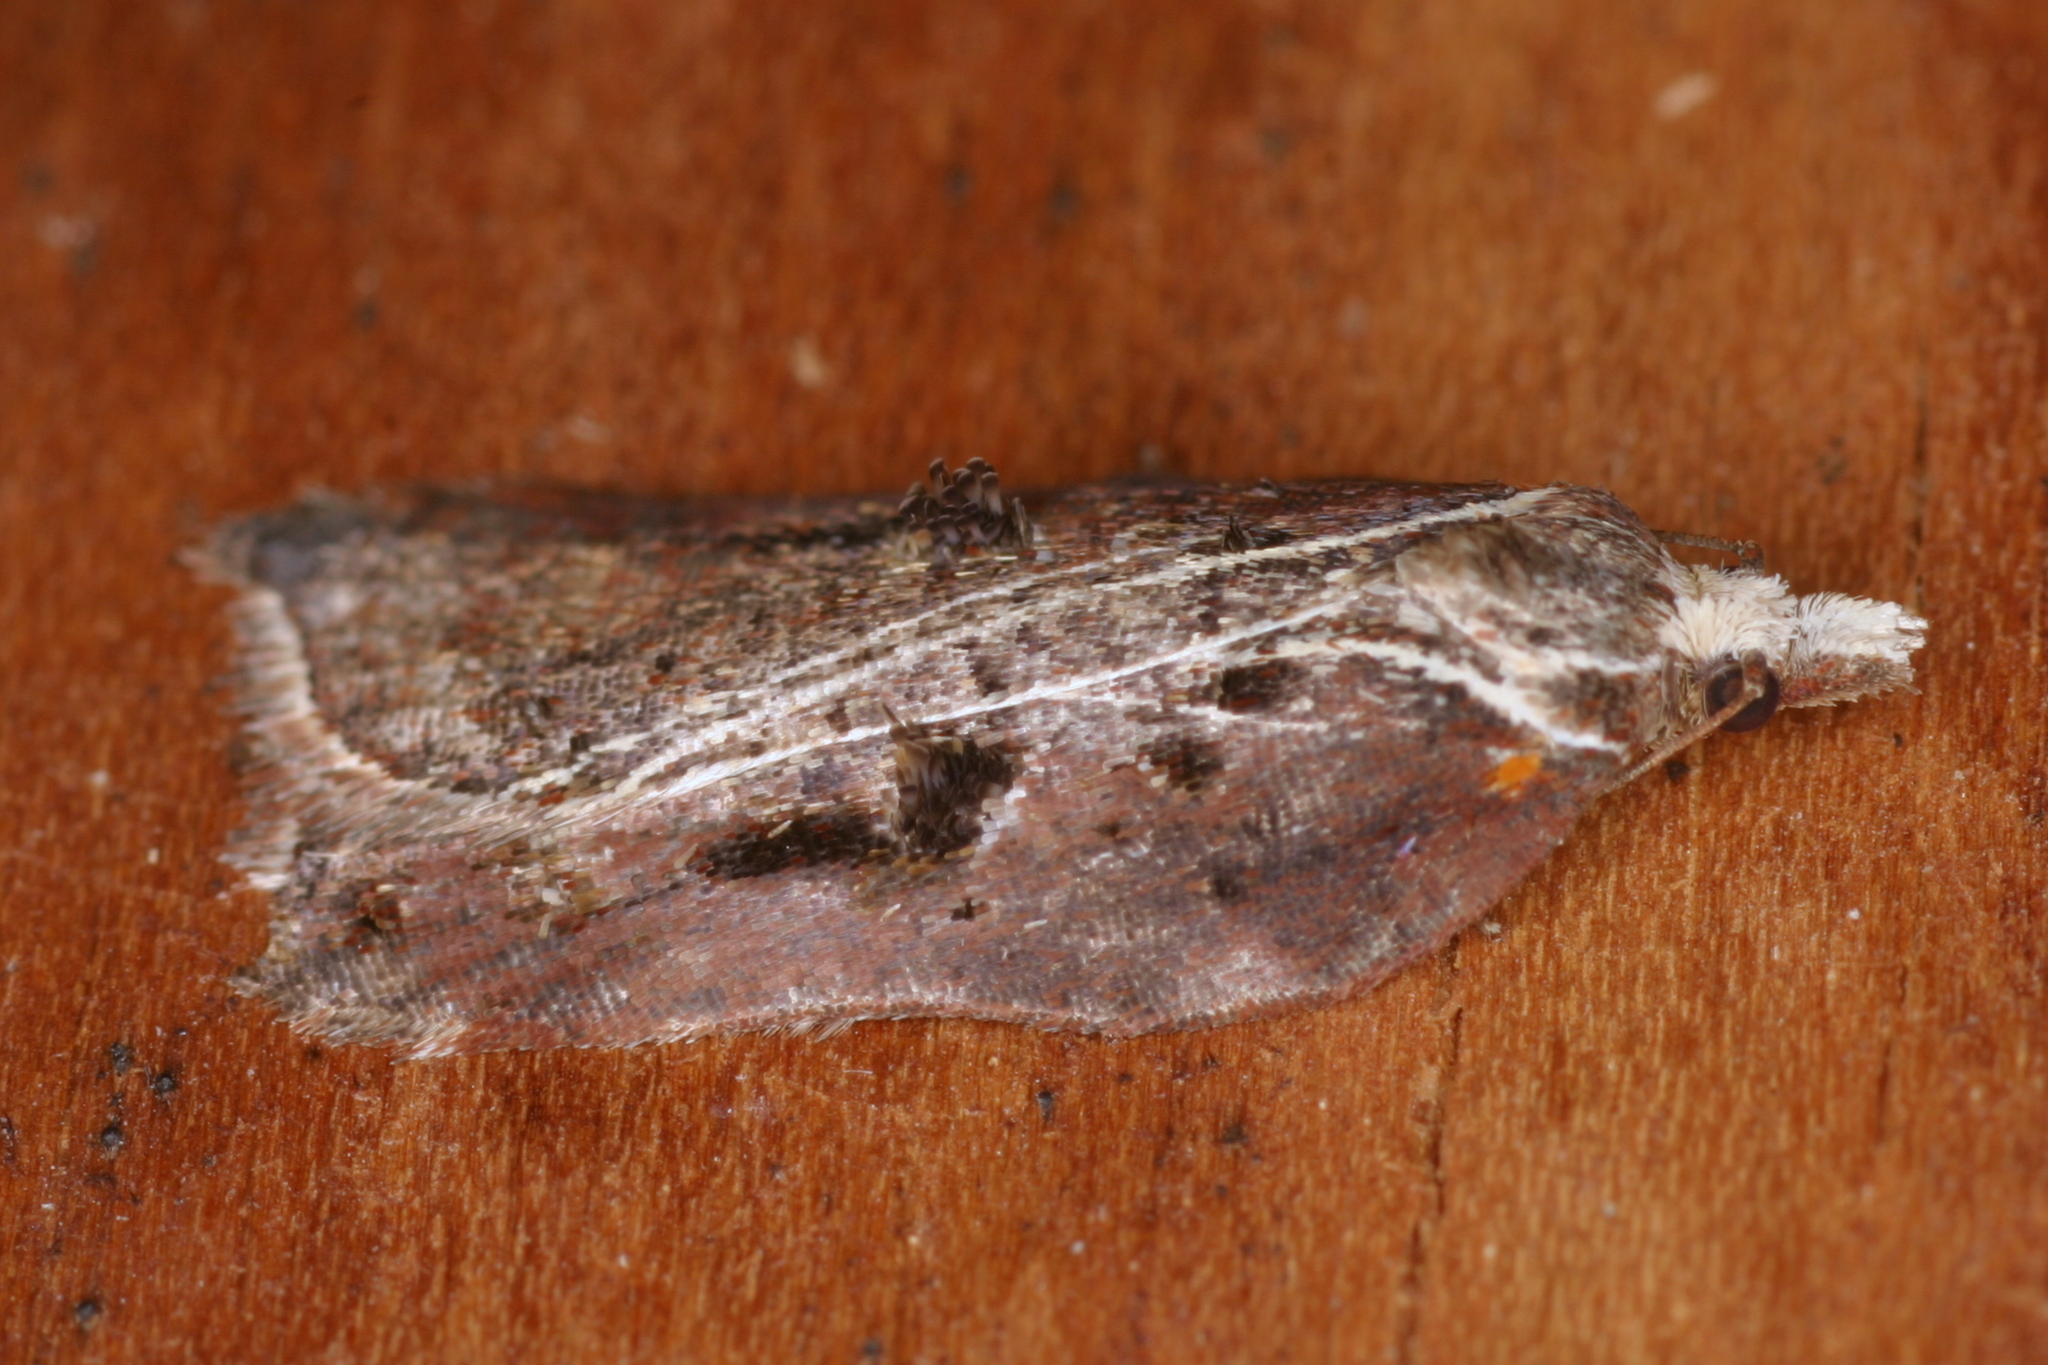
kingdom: Animalia
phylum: Arthropoda
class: Insecta
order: Lepidoptera
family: Tortricidae
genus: Acleris
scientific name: Acleris cristana
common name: Tufted button
